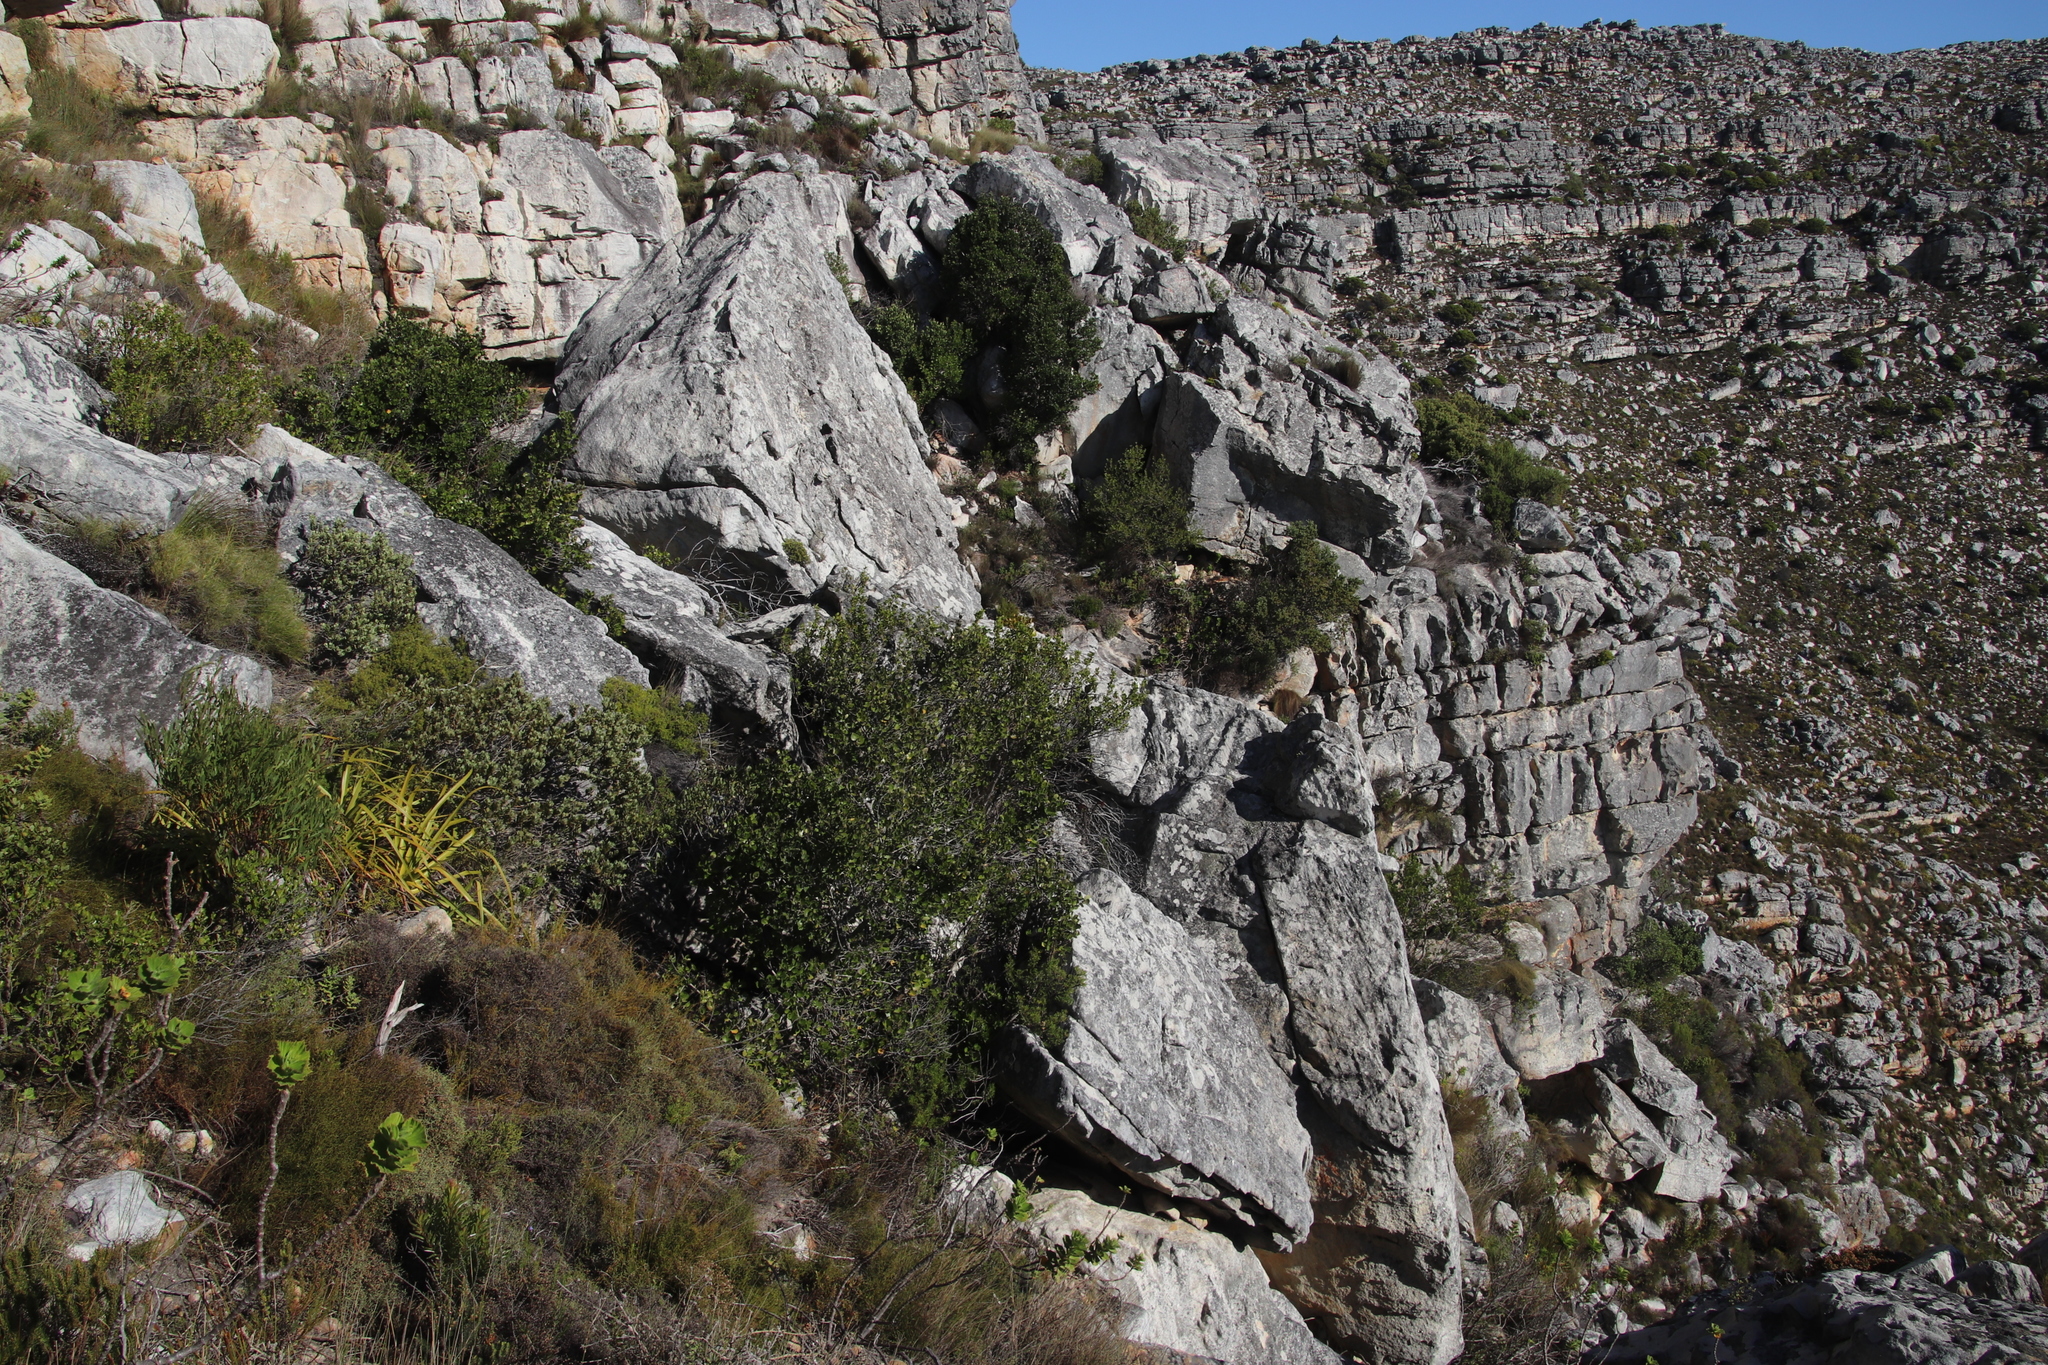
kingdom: Plantae
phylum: Tracheophyta
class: Magnoliopsida
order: Celastrales
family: Celastraceae
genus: Cassine
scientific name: Cassine peragua
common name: Cape saffron
